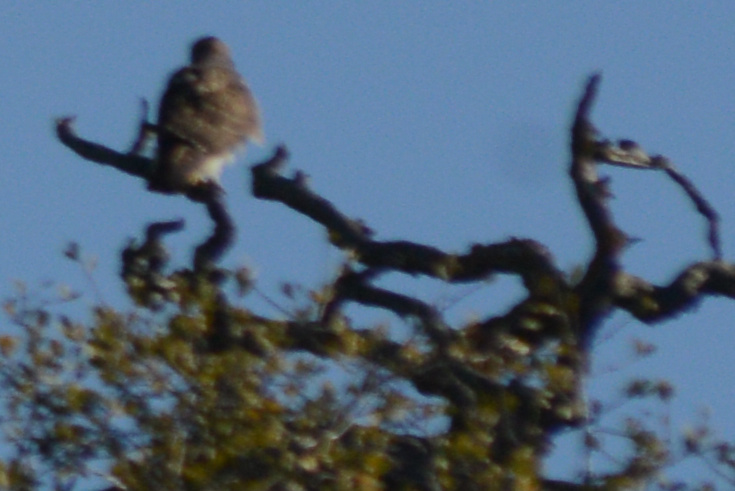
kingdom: Animalia
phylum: Chordata
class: Aves
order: Accipitriformes
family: Accipitridae
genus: Buteo
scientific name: Buteo jamaicensis
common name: Red-tailed hawk
